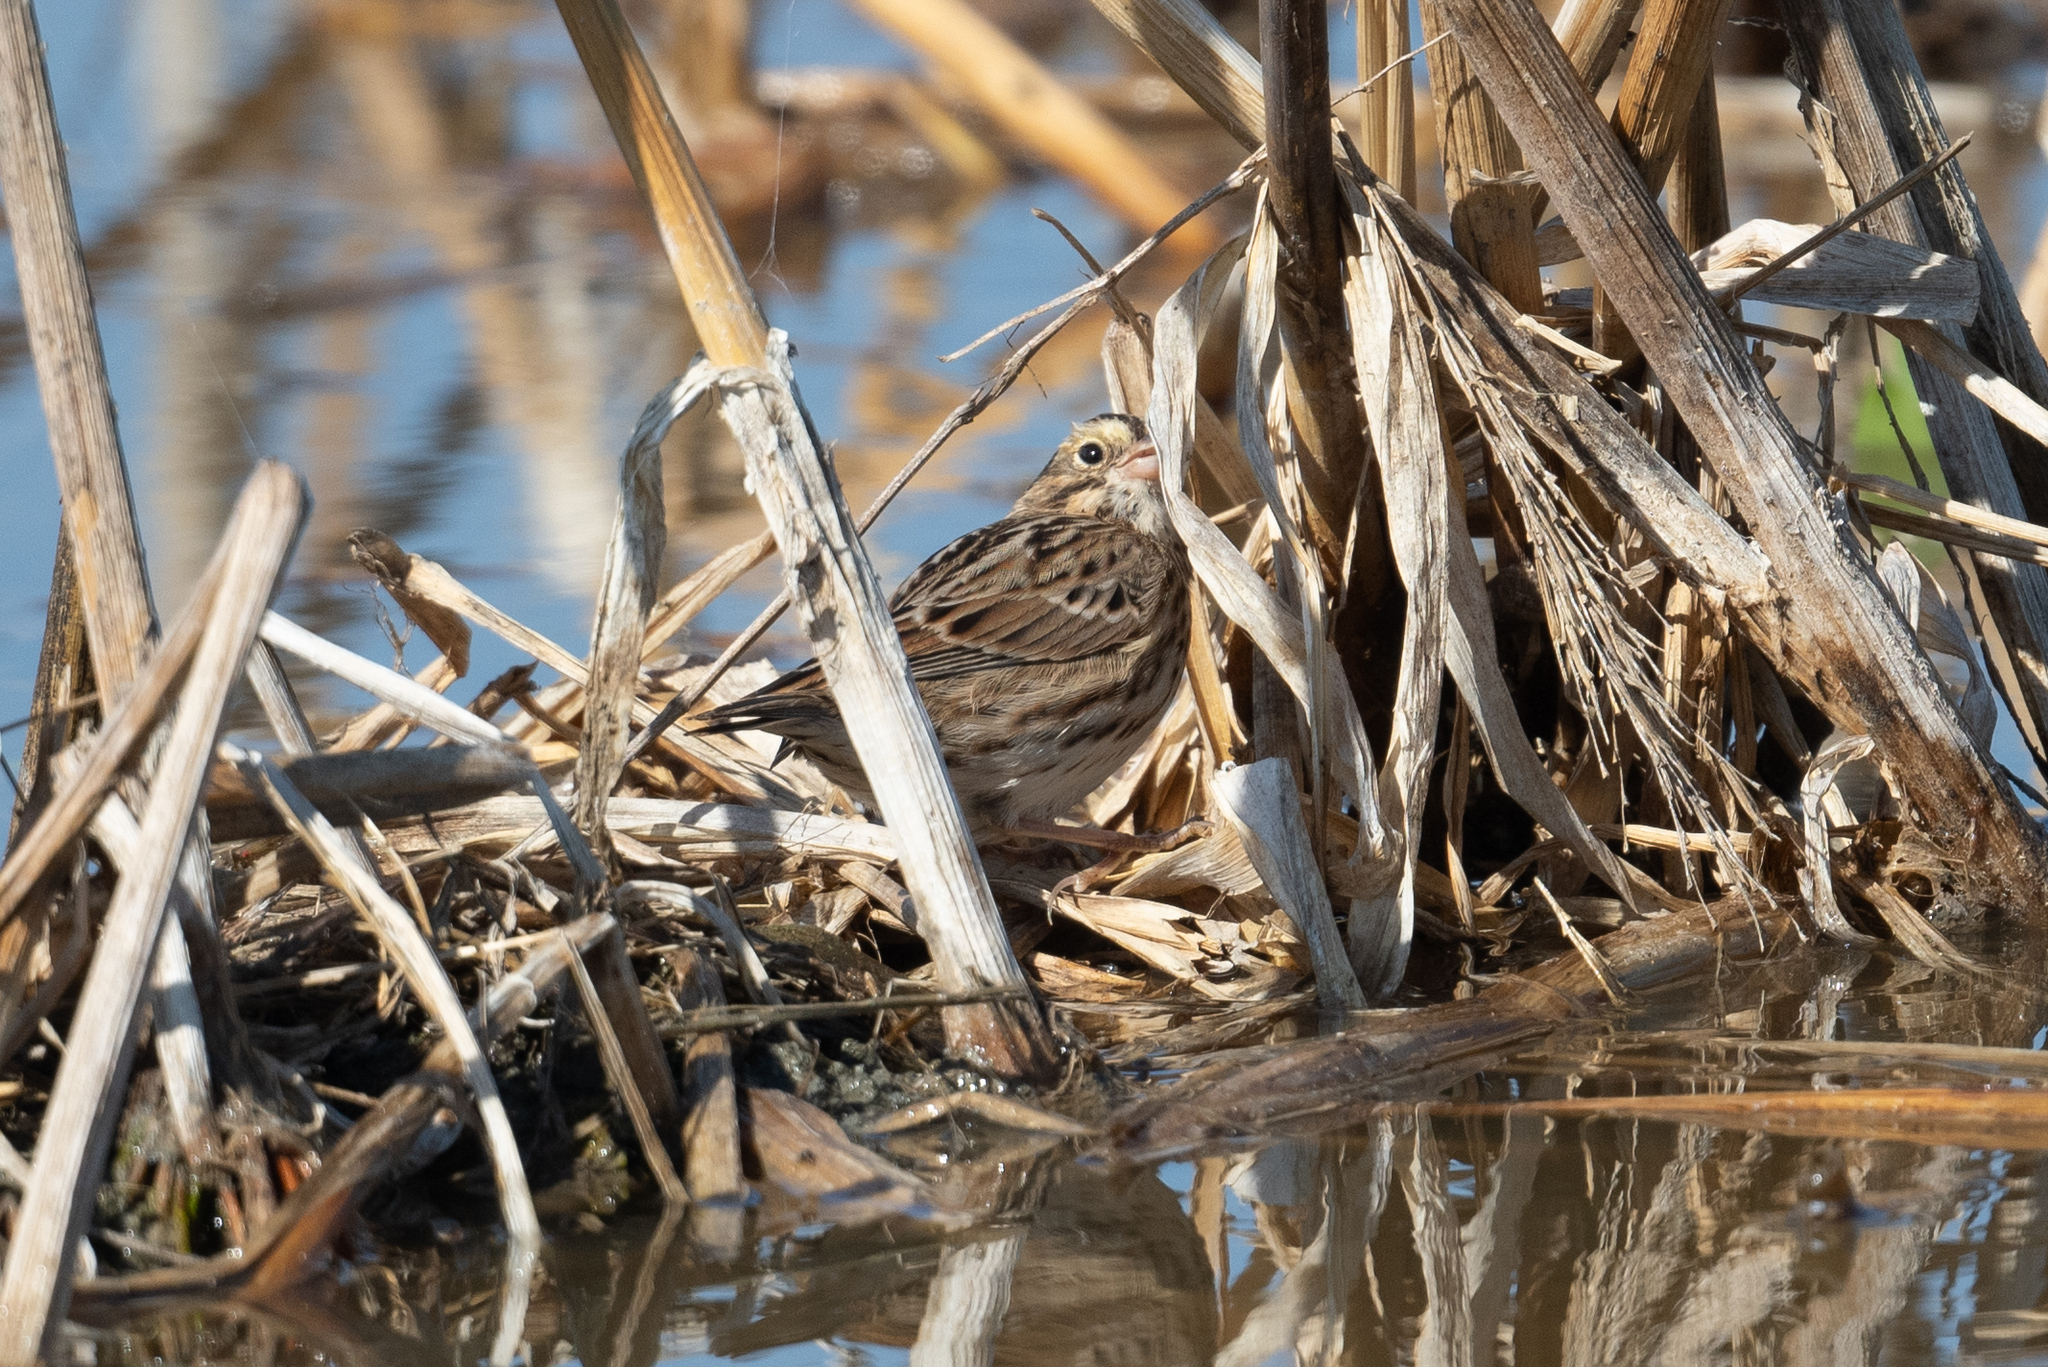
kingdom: Animalia
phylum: Chordata
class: Aves
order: Passeriformes
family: Passerellidae
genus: Passerculus
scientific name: Passerculus sandwichensis
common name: Savannah sparrow
